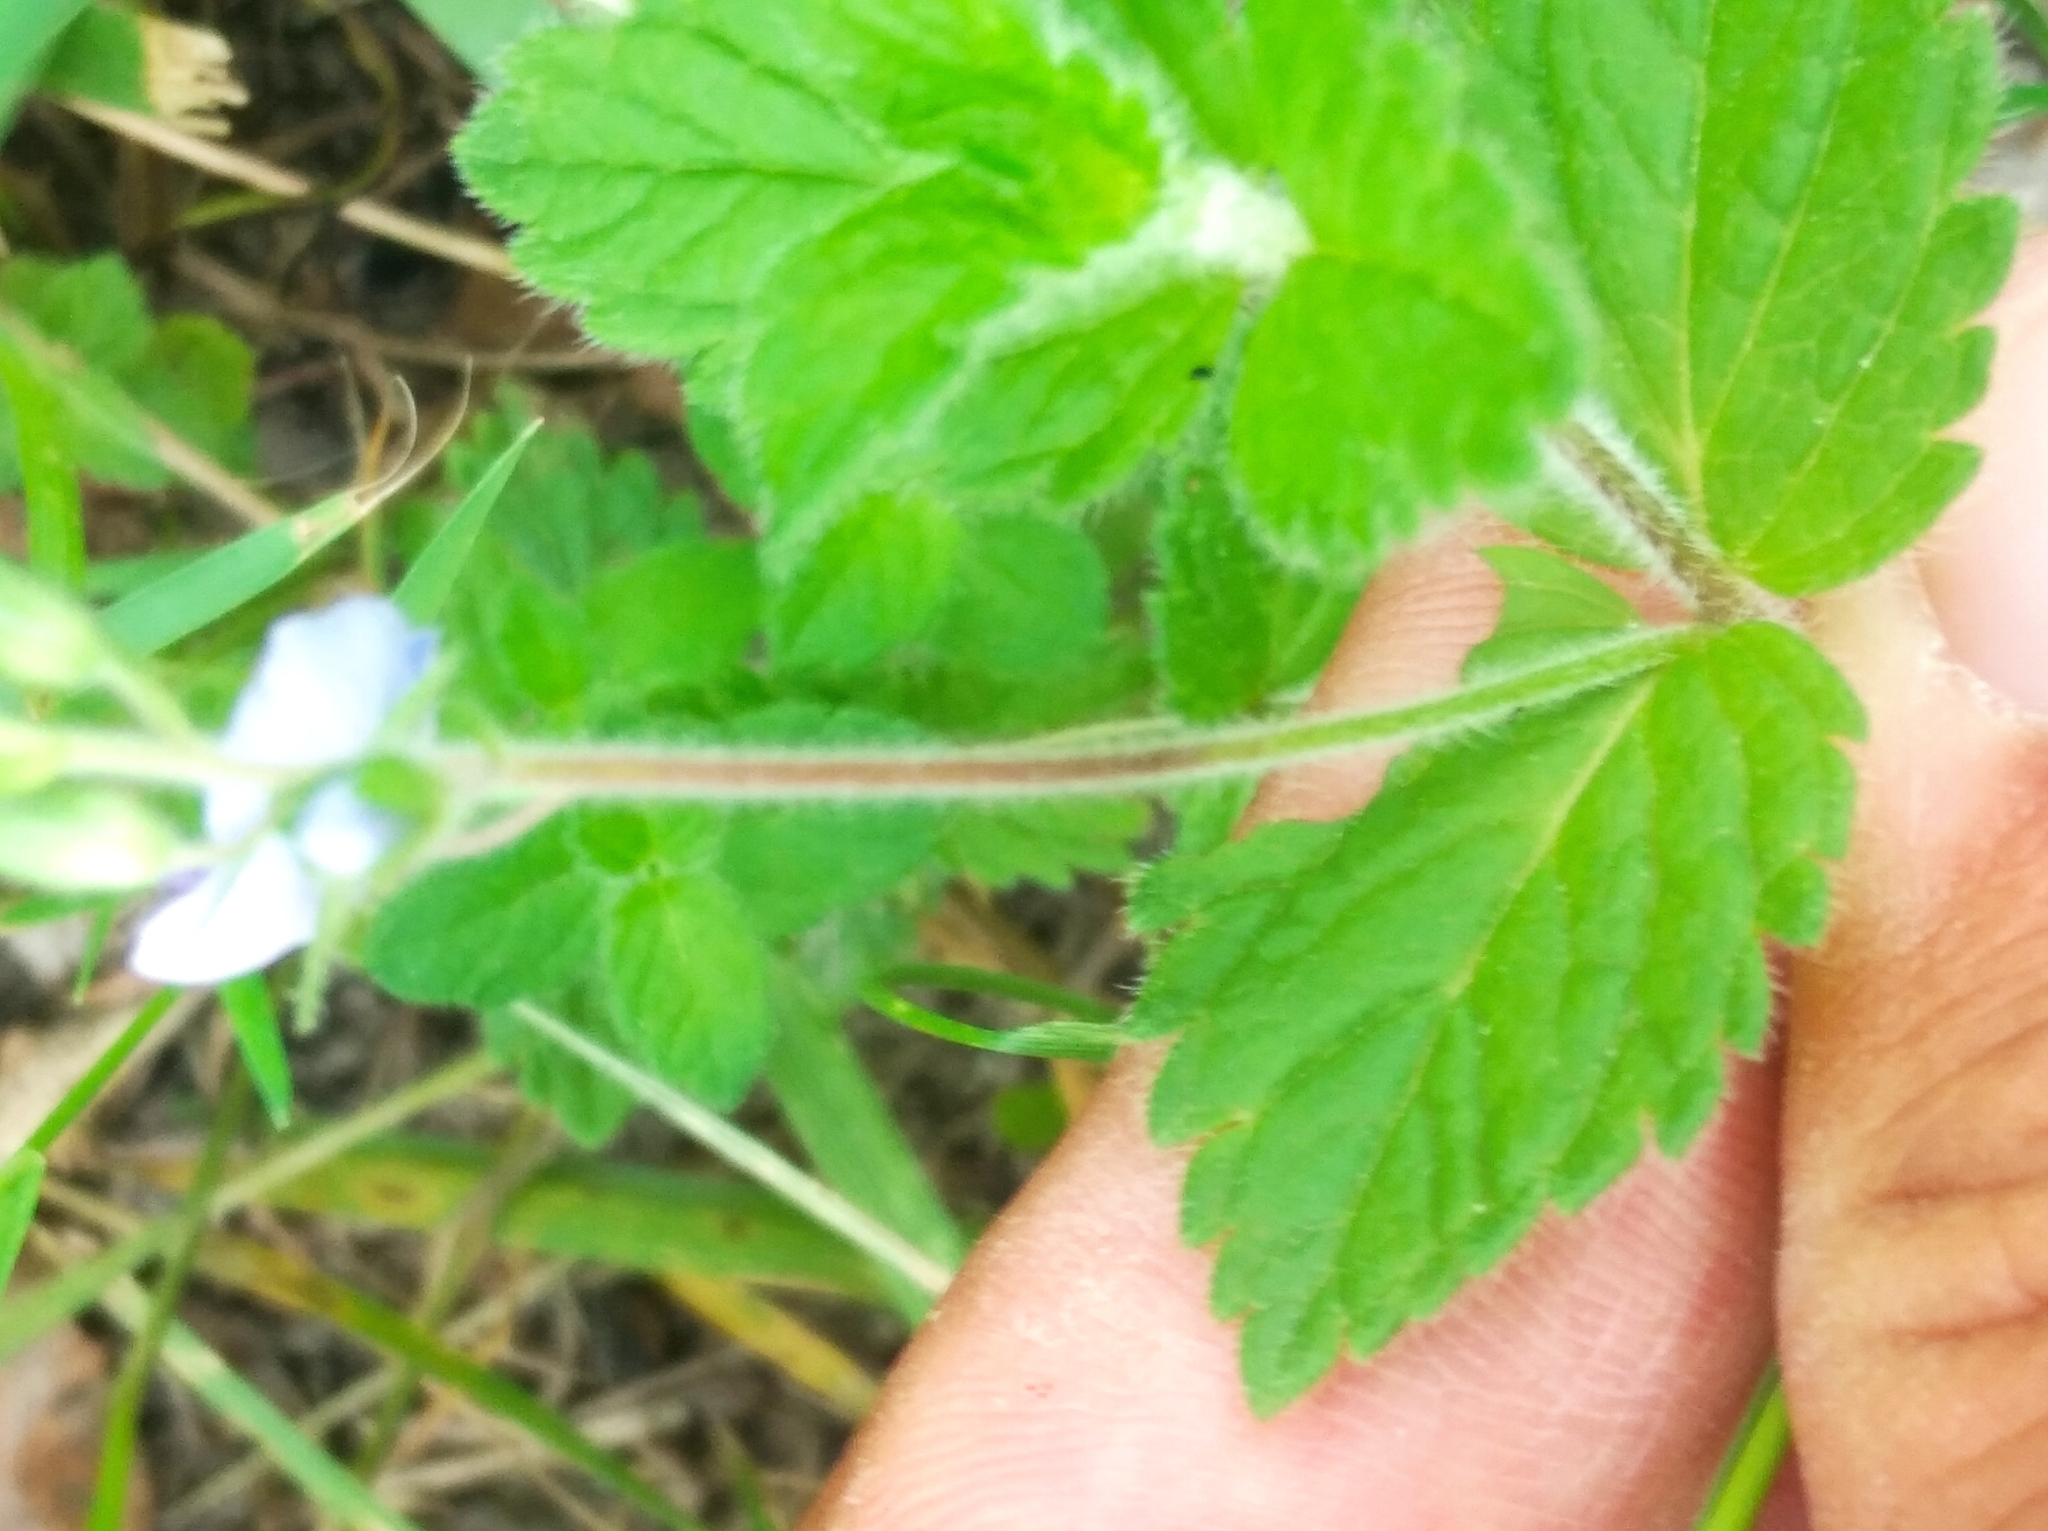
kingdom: Plantae
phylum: Tracheophyta
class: Magnoliopsida
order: Lamiales
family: Plantaginaceae
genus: Veronica
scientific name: Veronica chamaedrys
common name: Germander speedwell
